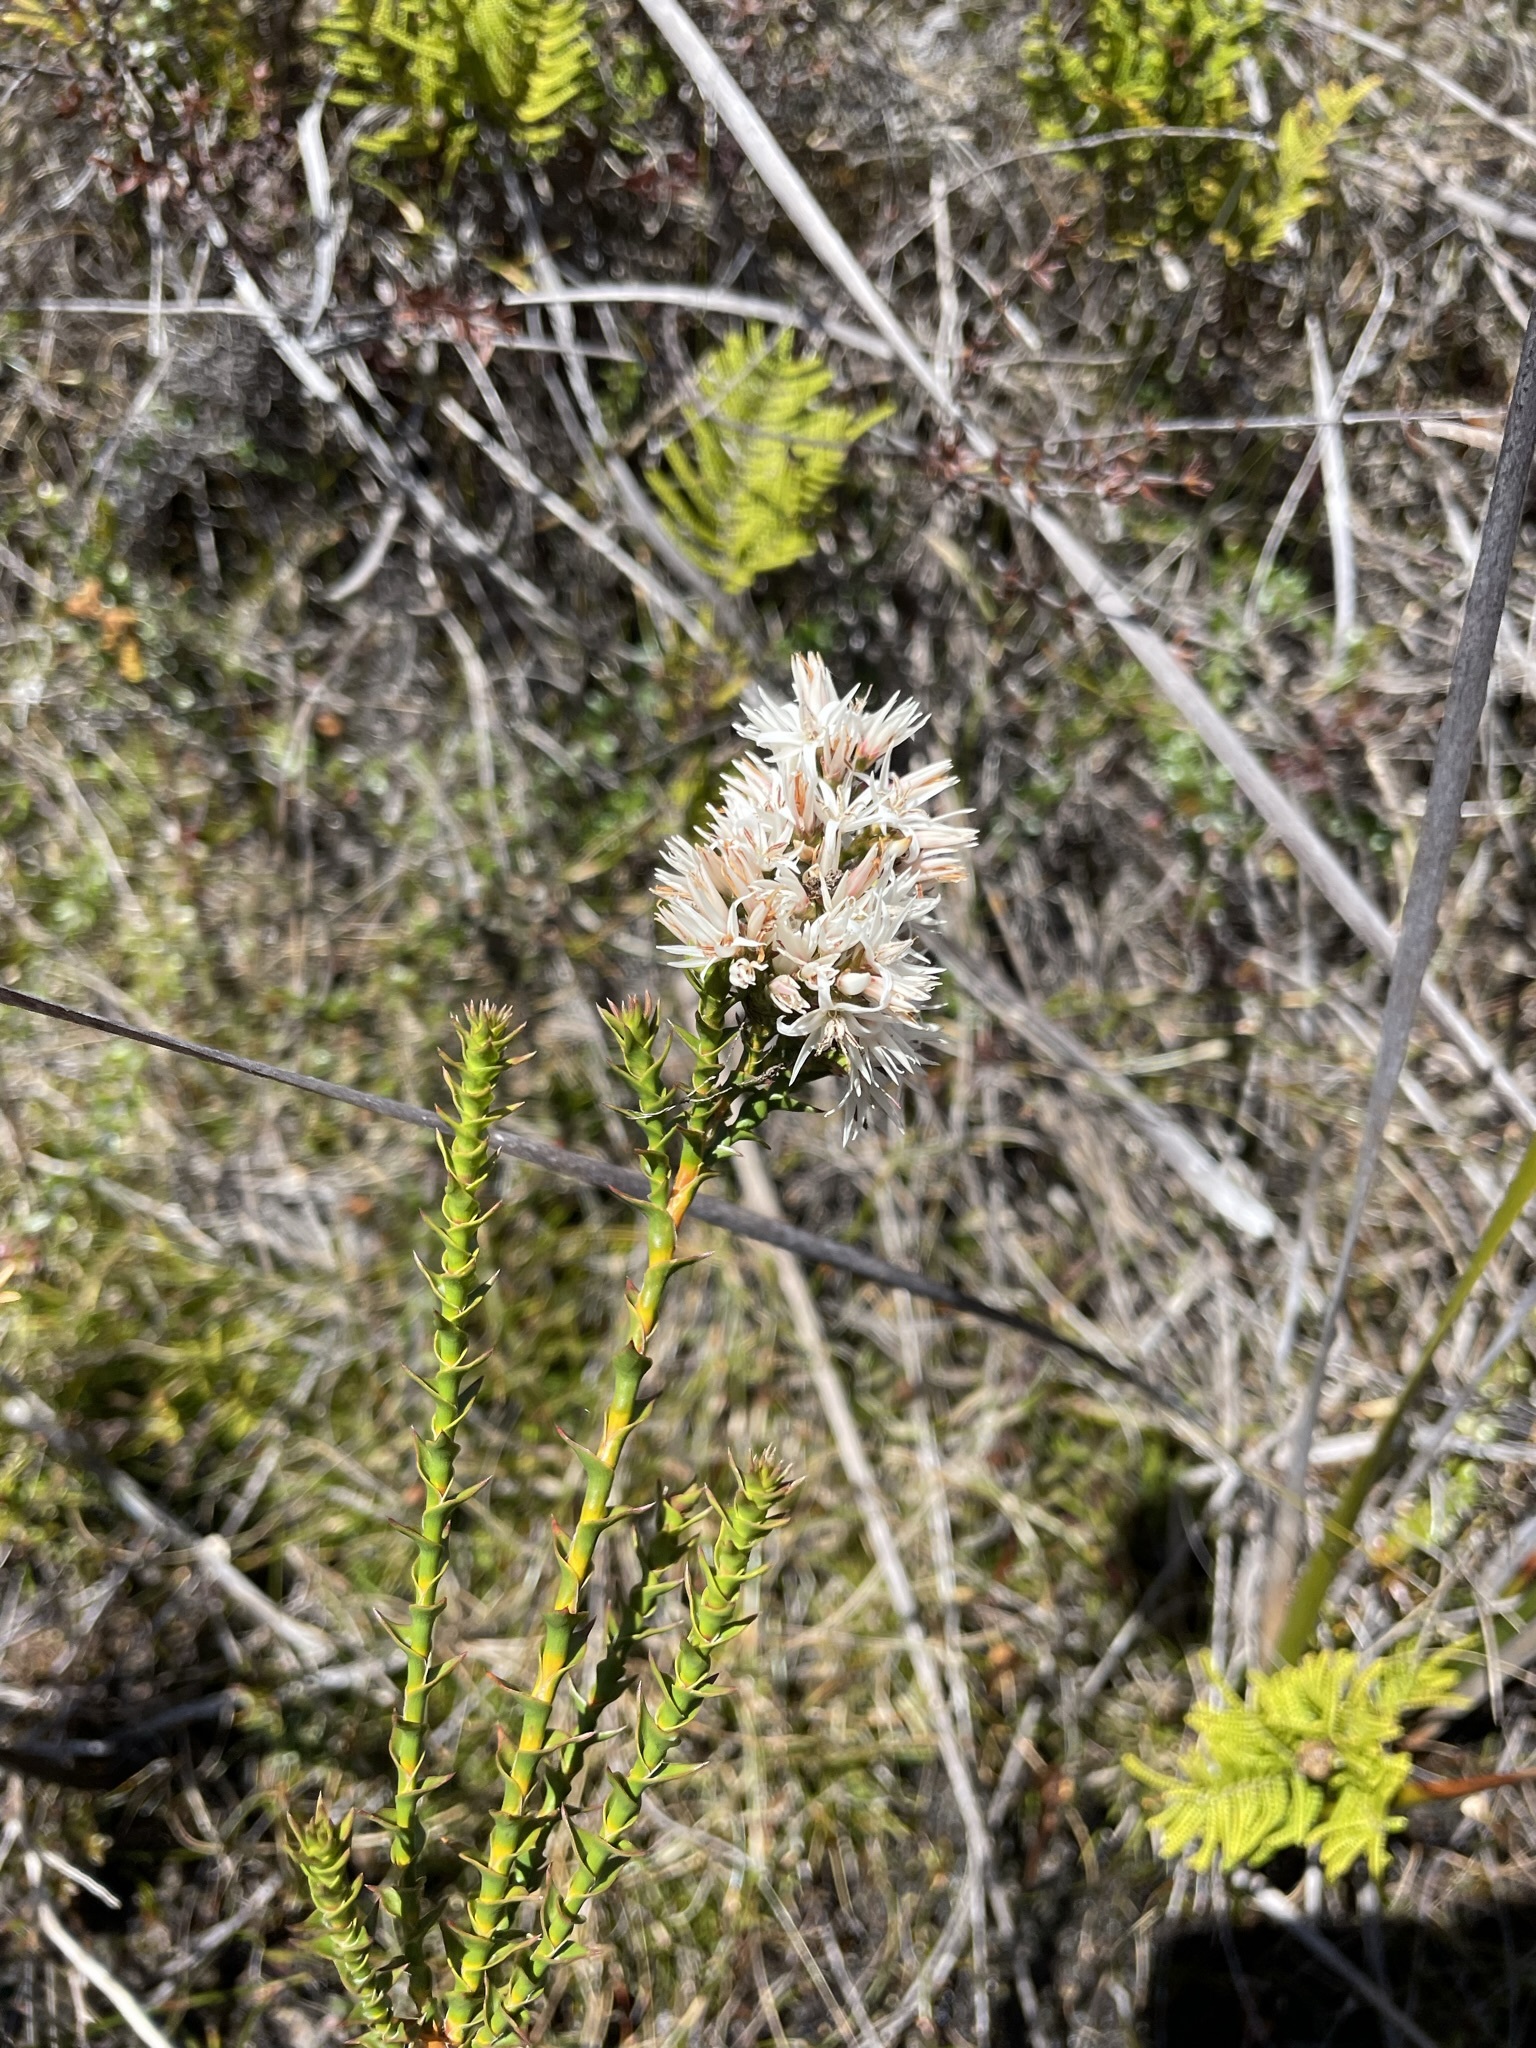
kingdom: Plantae
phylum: Tracheophyta
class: Magnoliopsida
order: Ericales
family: Ericaceae
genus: Sprengelia
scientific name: Sprengelia propinqua
